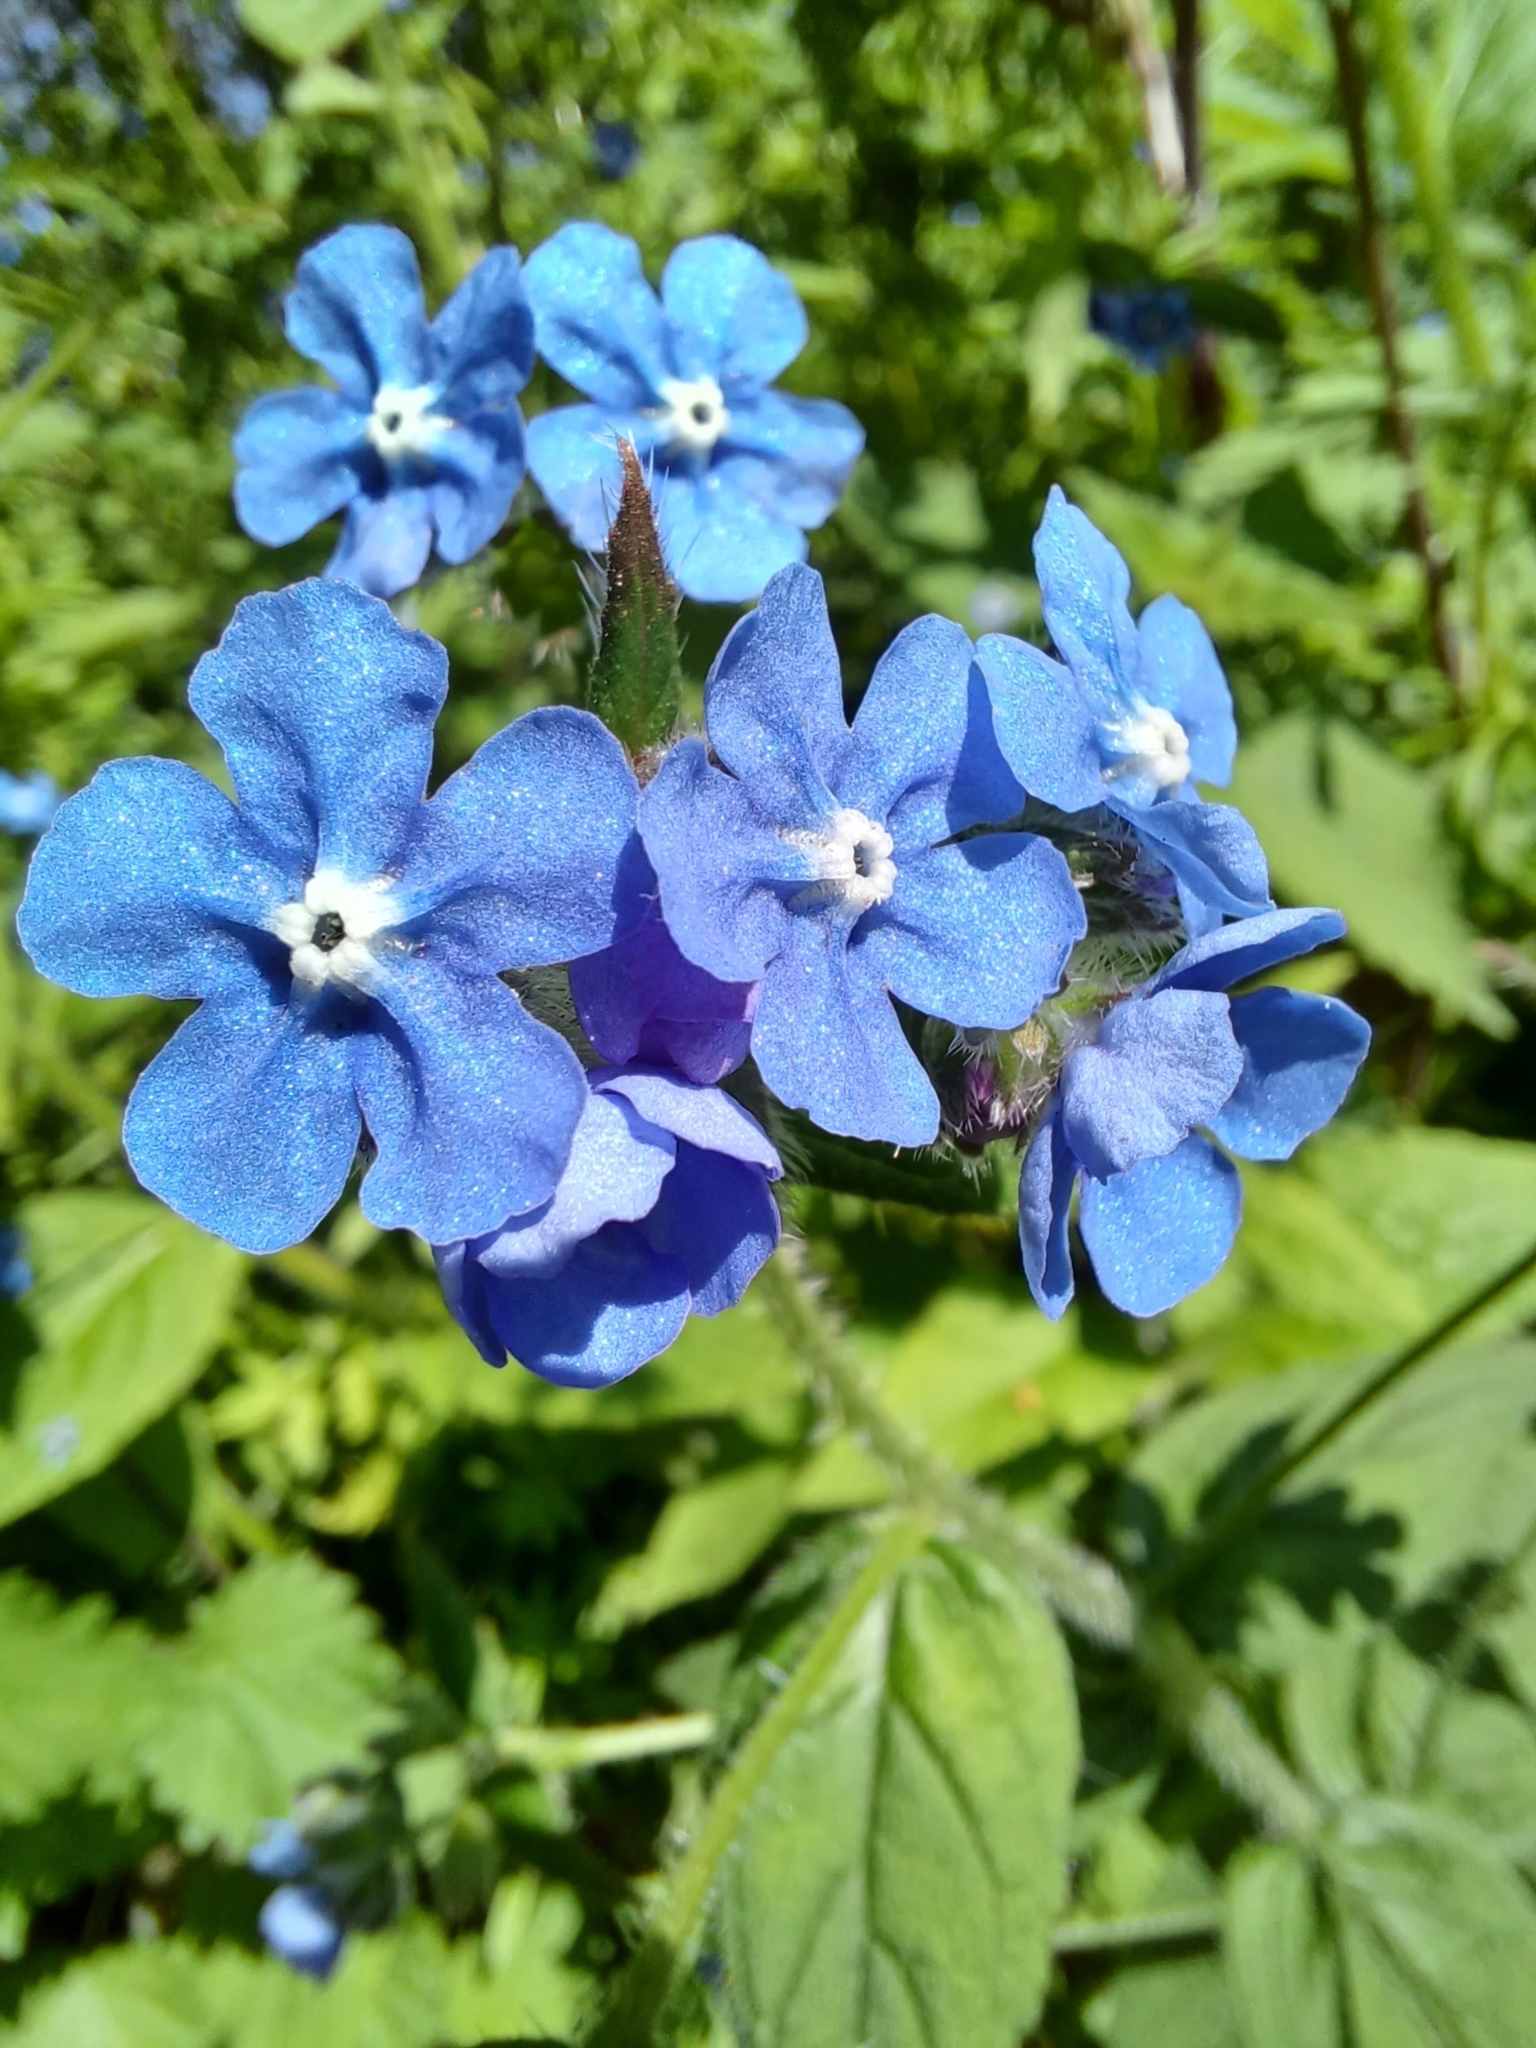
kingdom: Plantae
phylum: Tracheophyta
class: Magnoliopsida
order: Boraginales
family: Boraginaceae
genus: Pentaglottis
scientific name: Pentaglottis sempervirens
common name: Green alkanet
